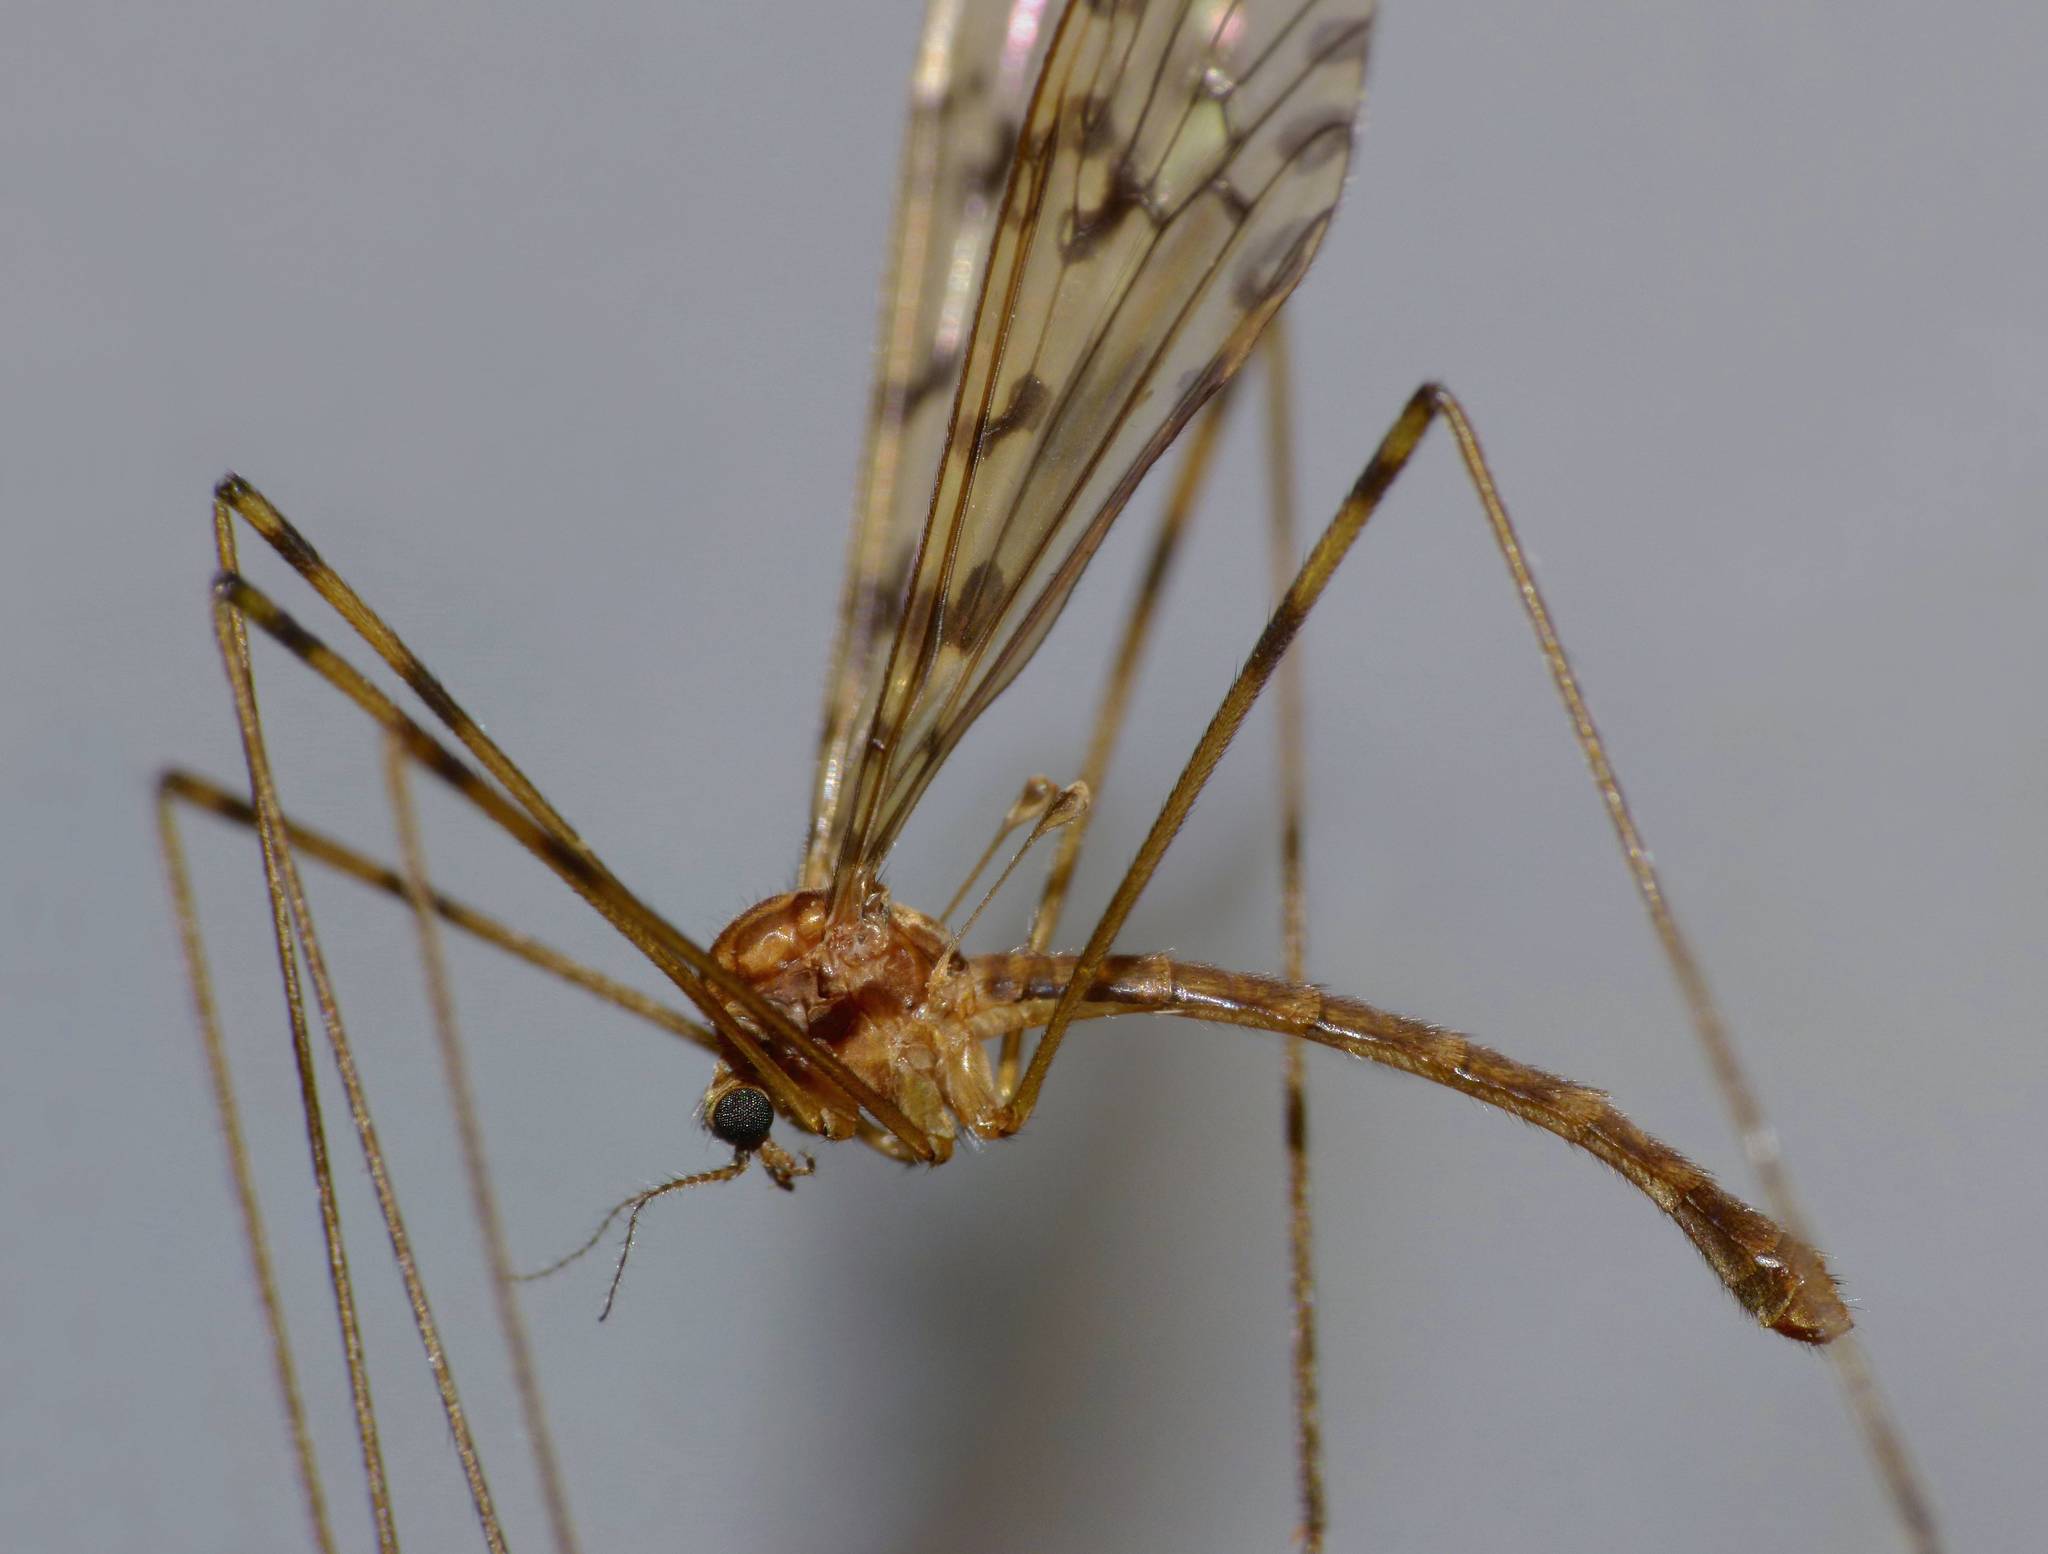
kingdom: Animalia
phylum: Arthropoda
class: Insecta
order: Diptera
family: Limoniidae
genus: Austrolimnophila
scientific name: Austrolimnophila lambi
